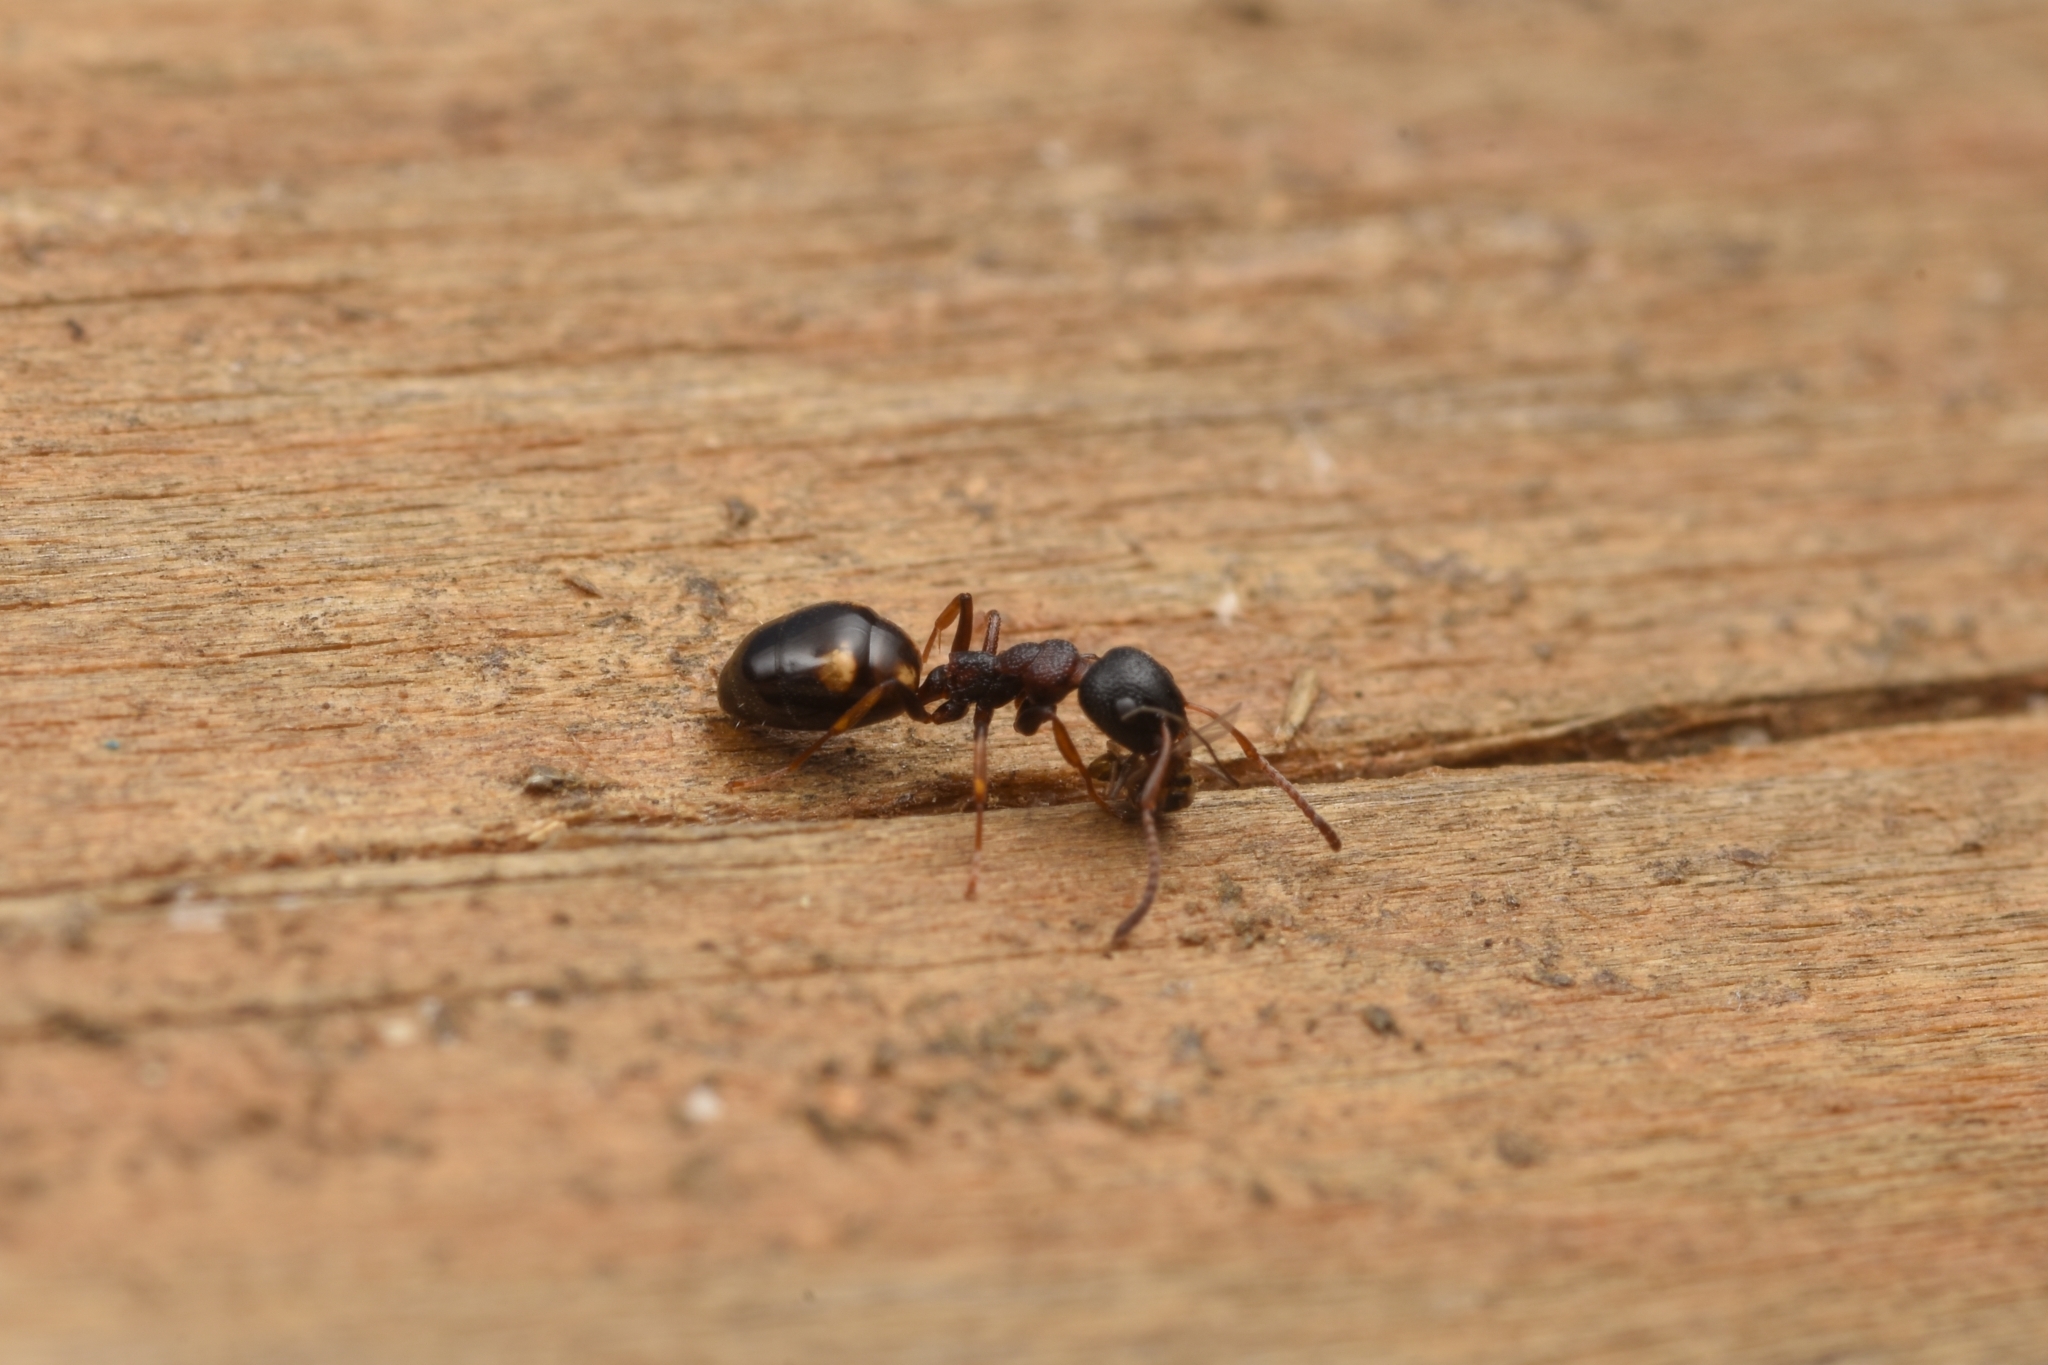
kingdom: Animalia
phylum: Arthropoda
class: Insecta
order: Hymenoptera
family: Formicidae
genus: Dolichoderus
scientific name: Dolichoderus sibiricus
